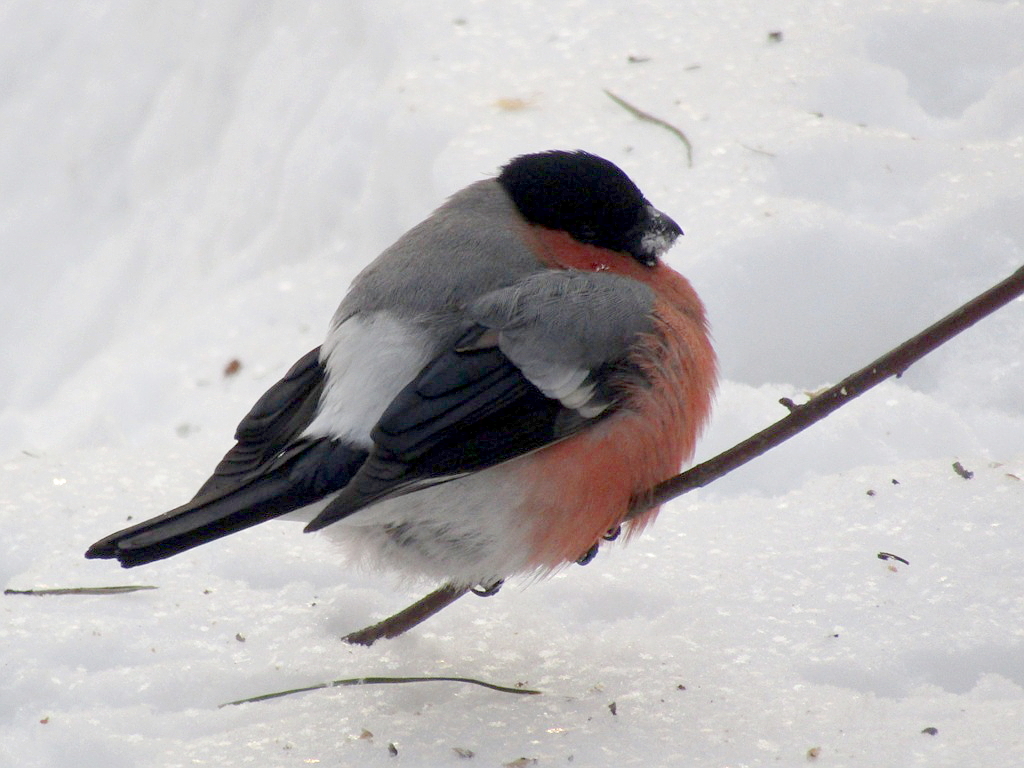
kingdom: Animalia
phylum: Chordata
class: Aves
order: Passeriformes
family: Fringillidae
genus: Pyrrhula
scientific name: Pyrrhula pyrrhula
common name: Eurasian bullfinch
